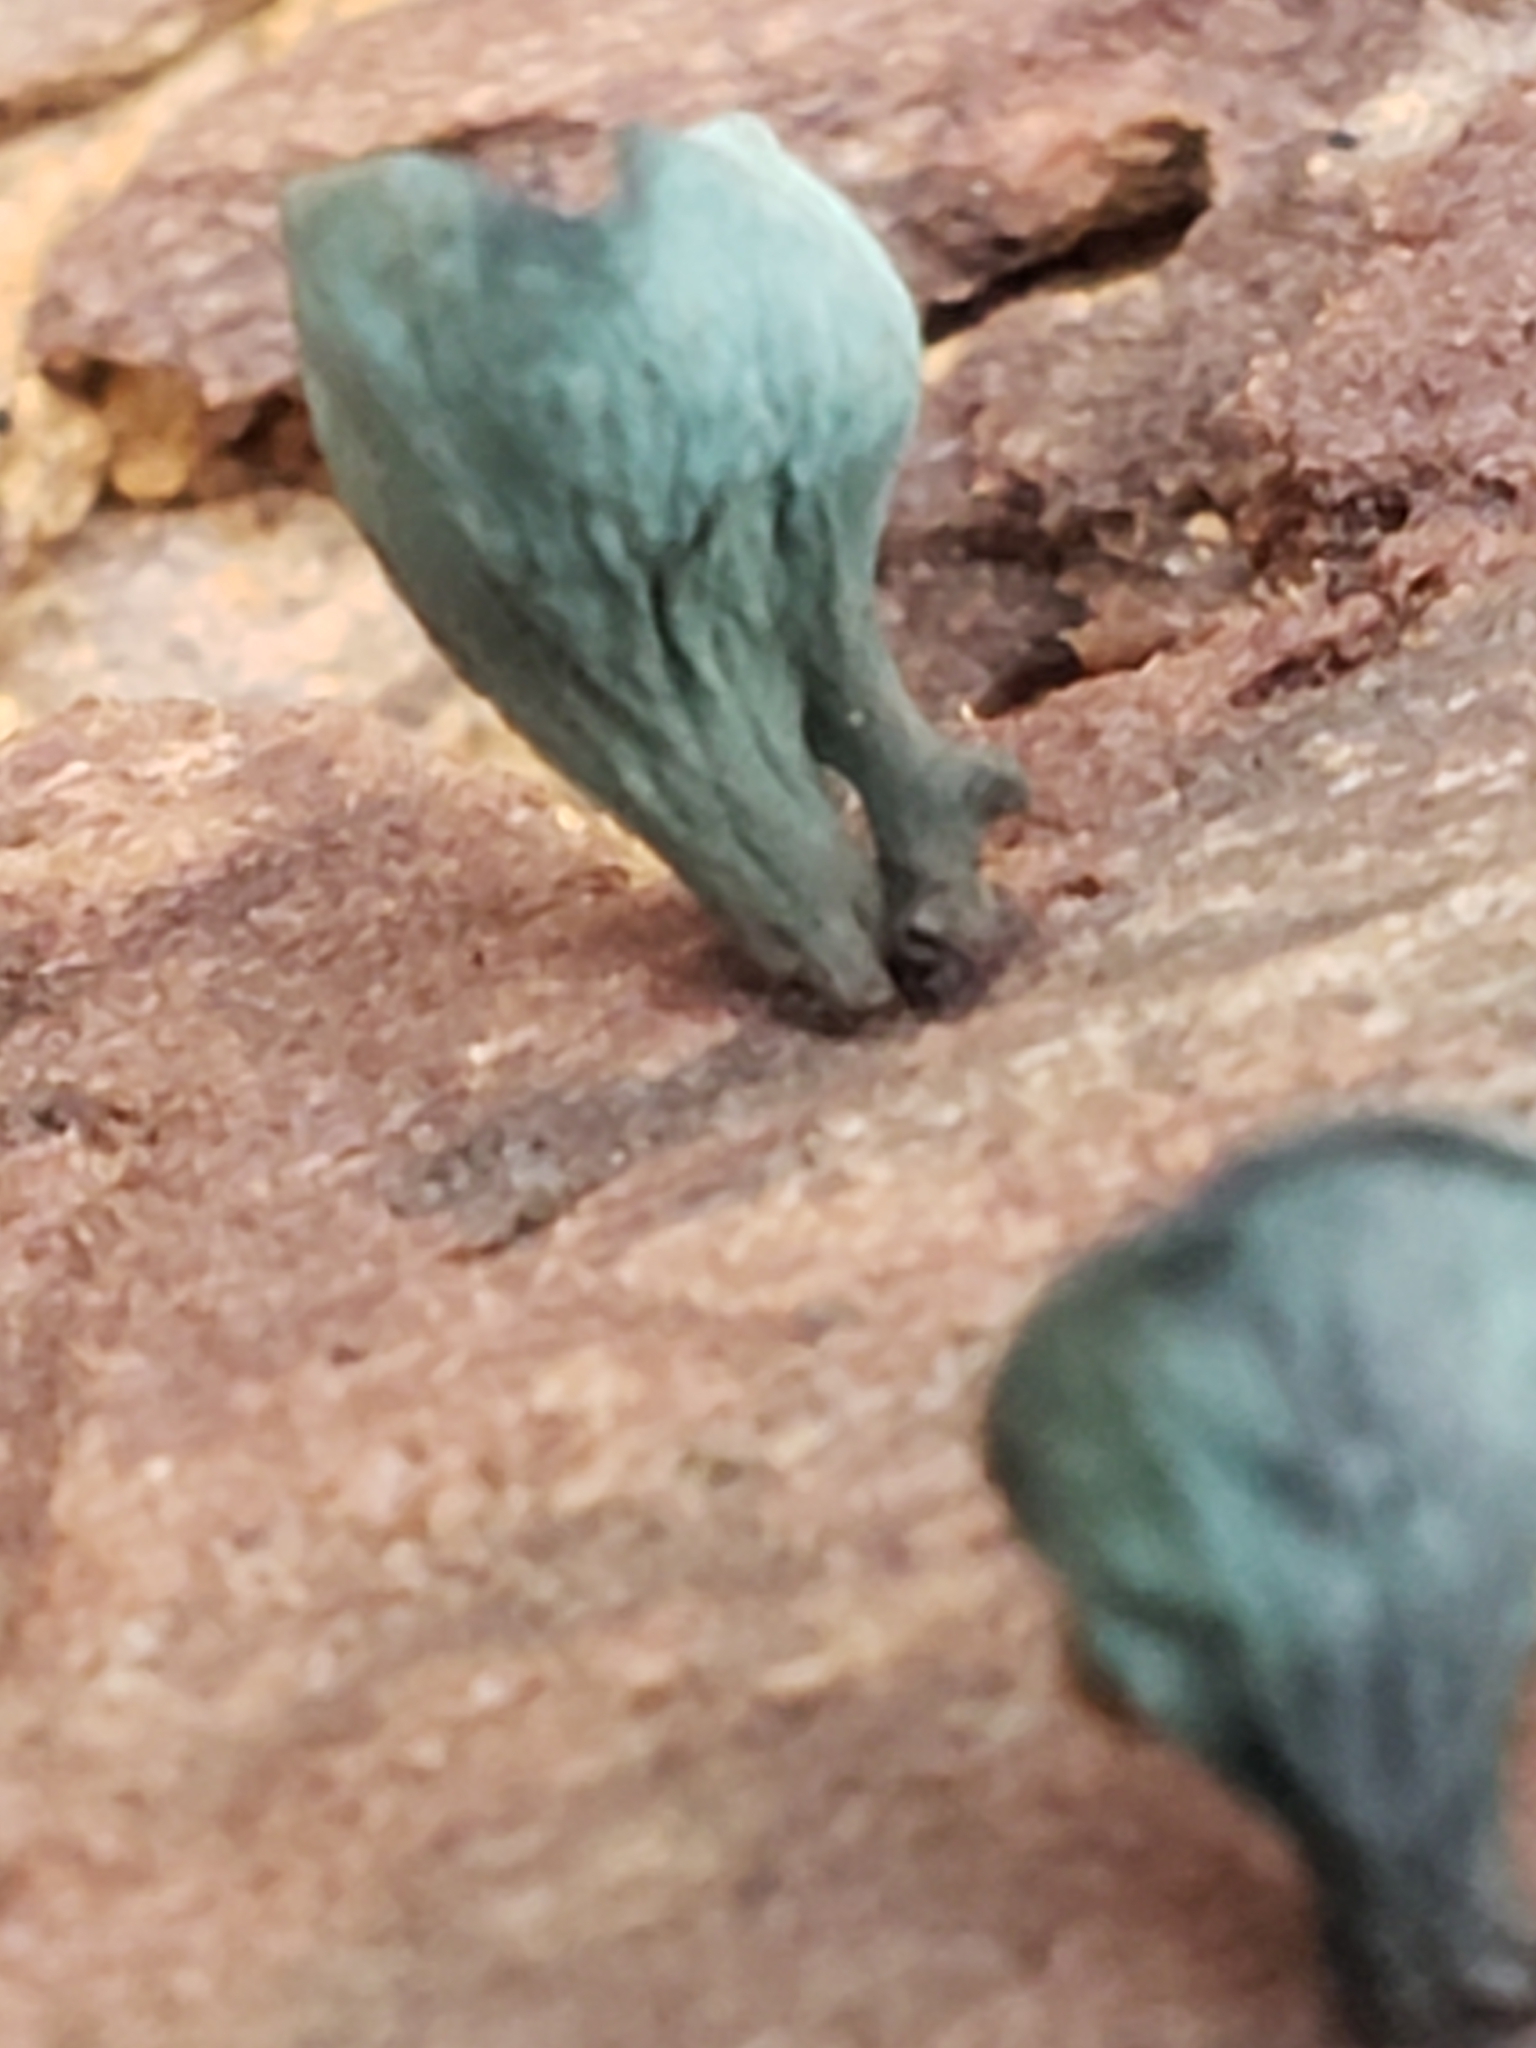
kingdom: Fungi
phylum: Ascomycota
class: Leotiomycetes
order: Helotiales
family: Chlorociboriaceae
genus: Chlorociboria
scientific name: Chlorociboria aeruginascens
